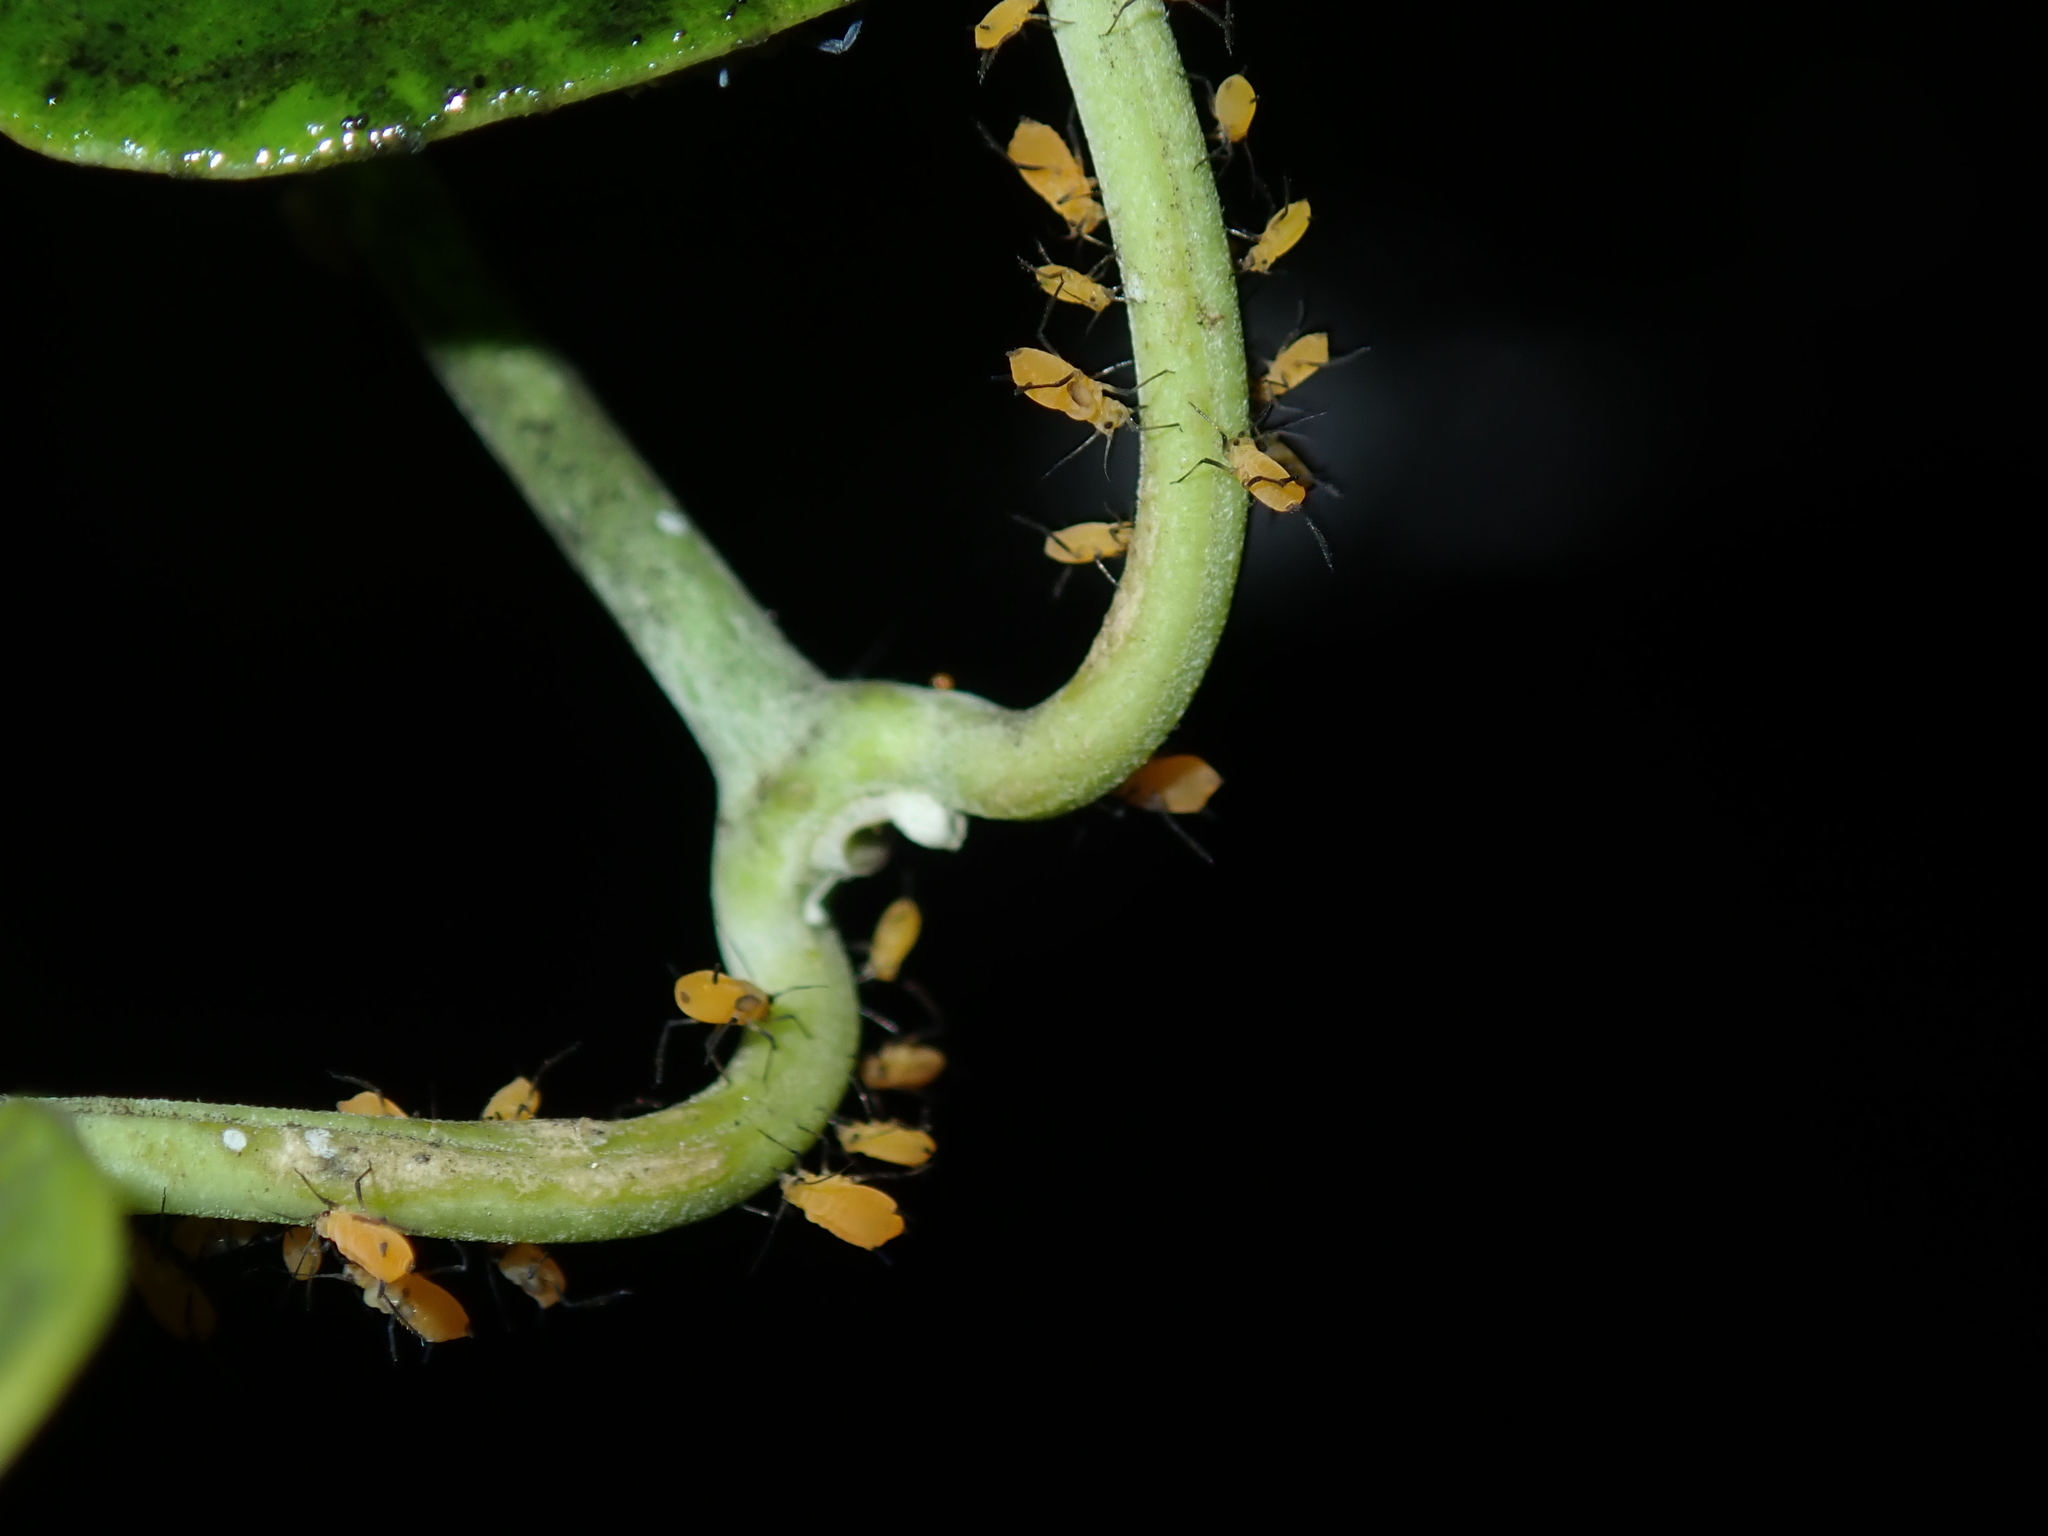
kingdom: Animalia
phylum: Arthropoda
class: Insecta
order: Hemiptera
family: Aphididae
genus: Aphis
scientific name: Aphis nerii
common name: Oleander aphid
